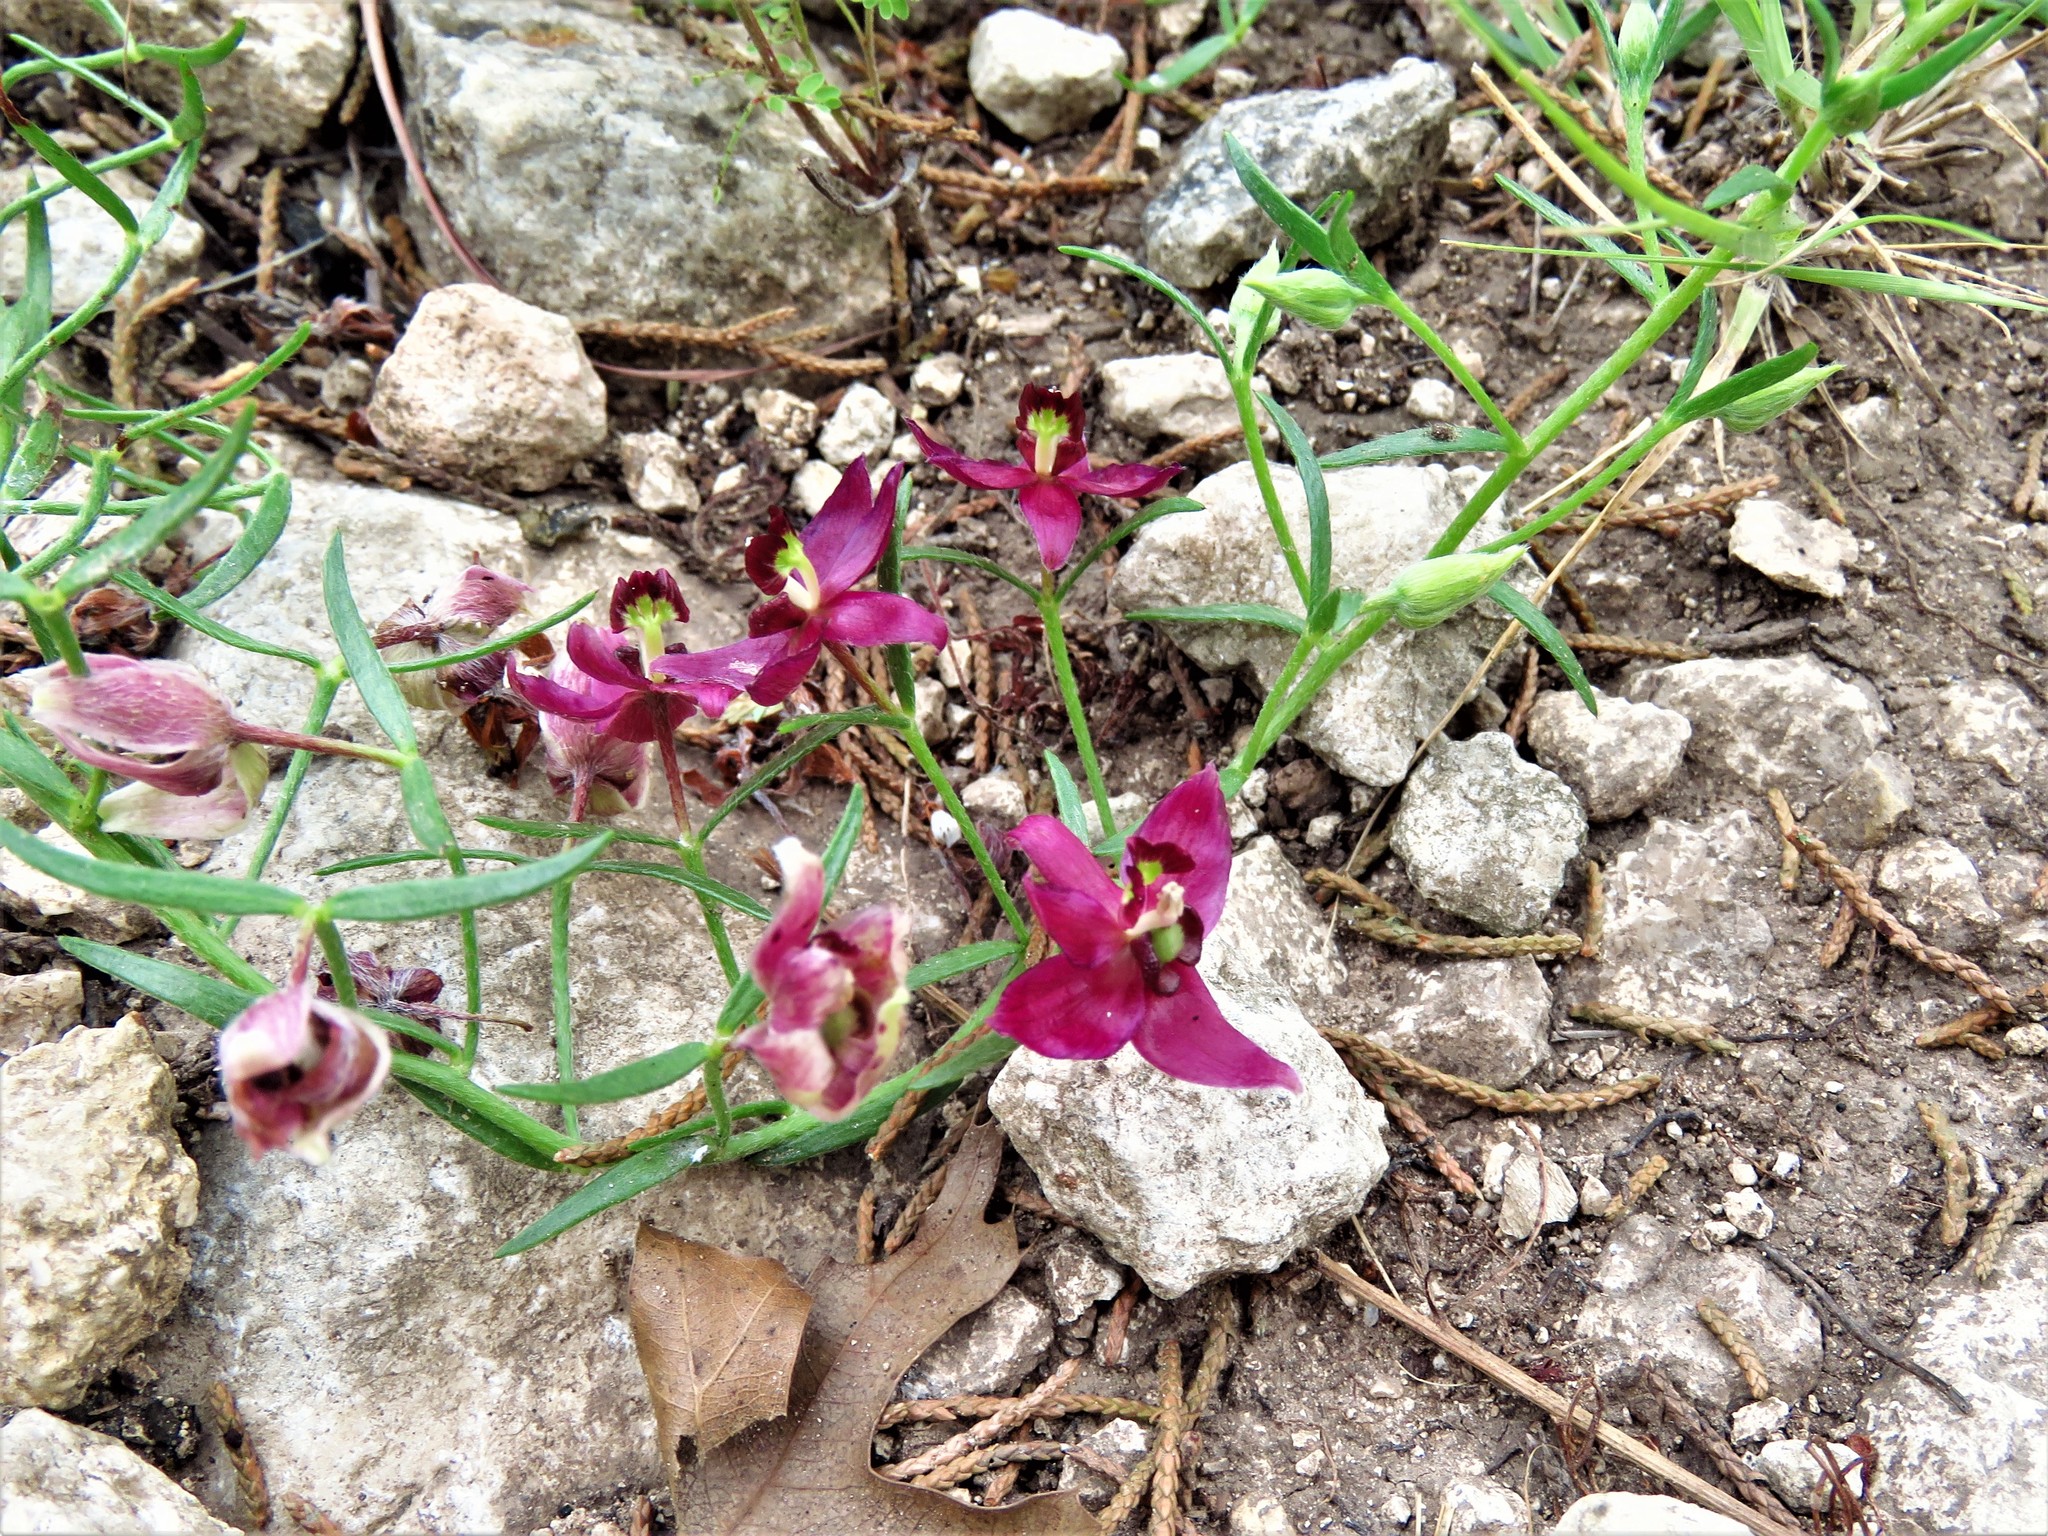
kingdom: Plantae
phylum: Tracheophyta
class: Magnoliopsida
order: Zygophyllales
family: Krameriaceae
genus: Krameria
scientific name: Krameria lanceolata
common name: Ratany
